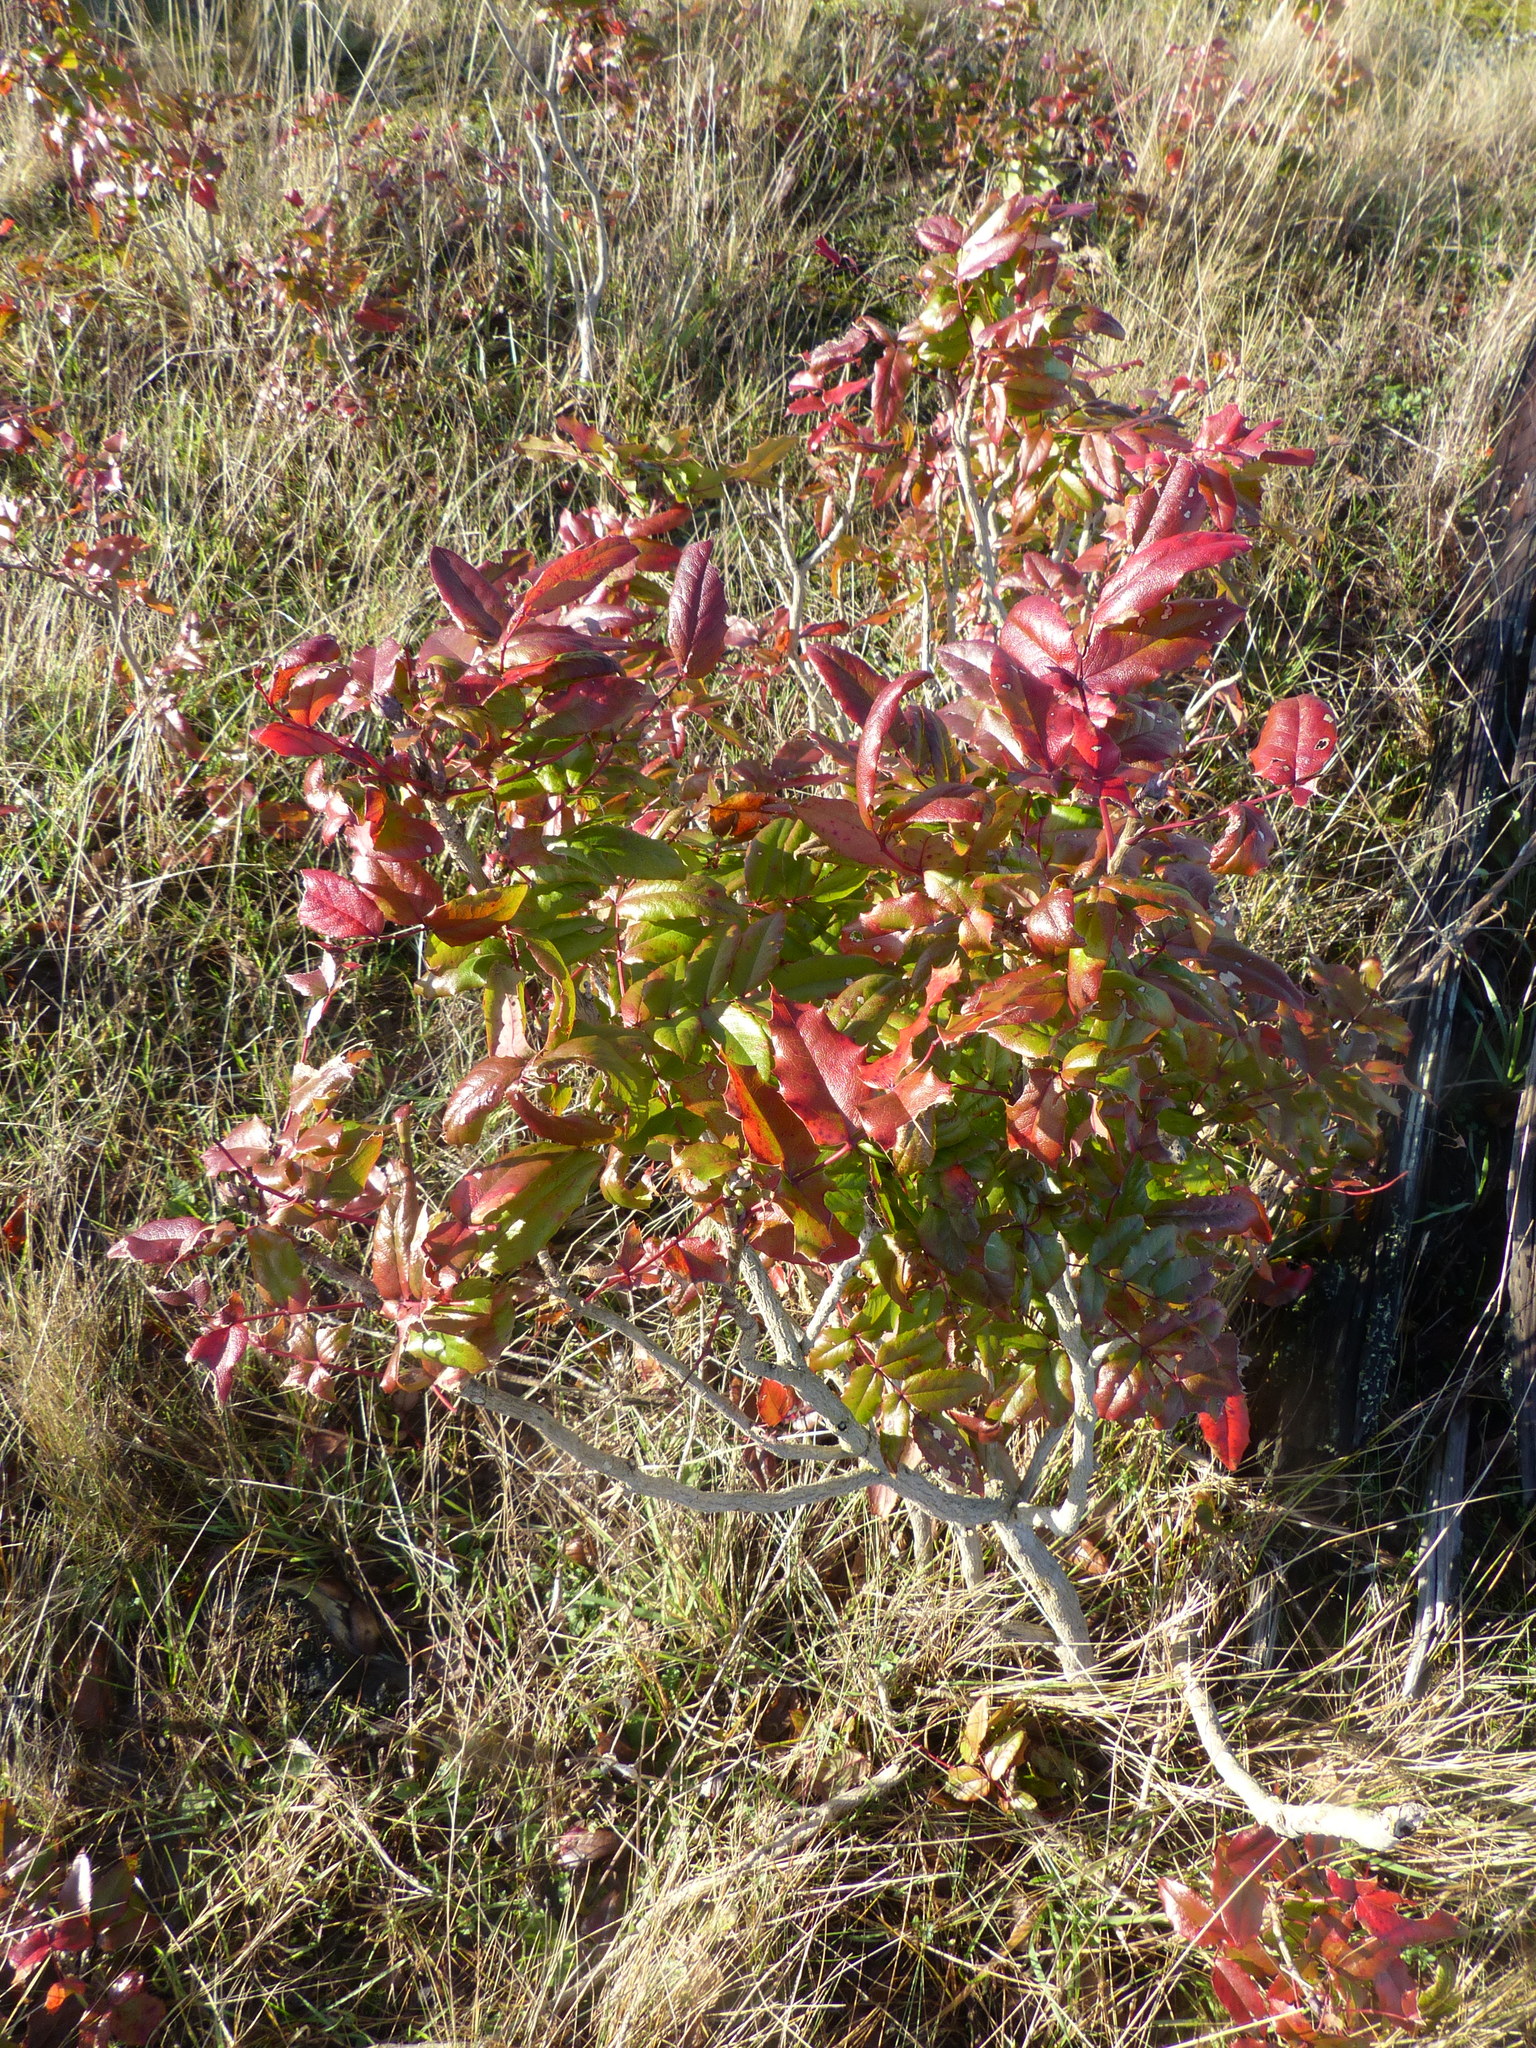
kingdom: Plantae
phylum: Tracheophyta
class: Magnoliopsida
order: Ranunculales
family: Berberidaceae
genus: Mahonia
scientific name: Mahonia aquifolium
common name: Oregon-grape
